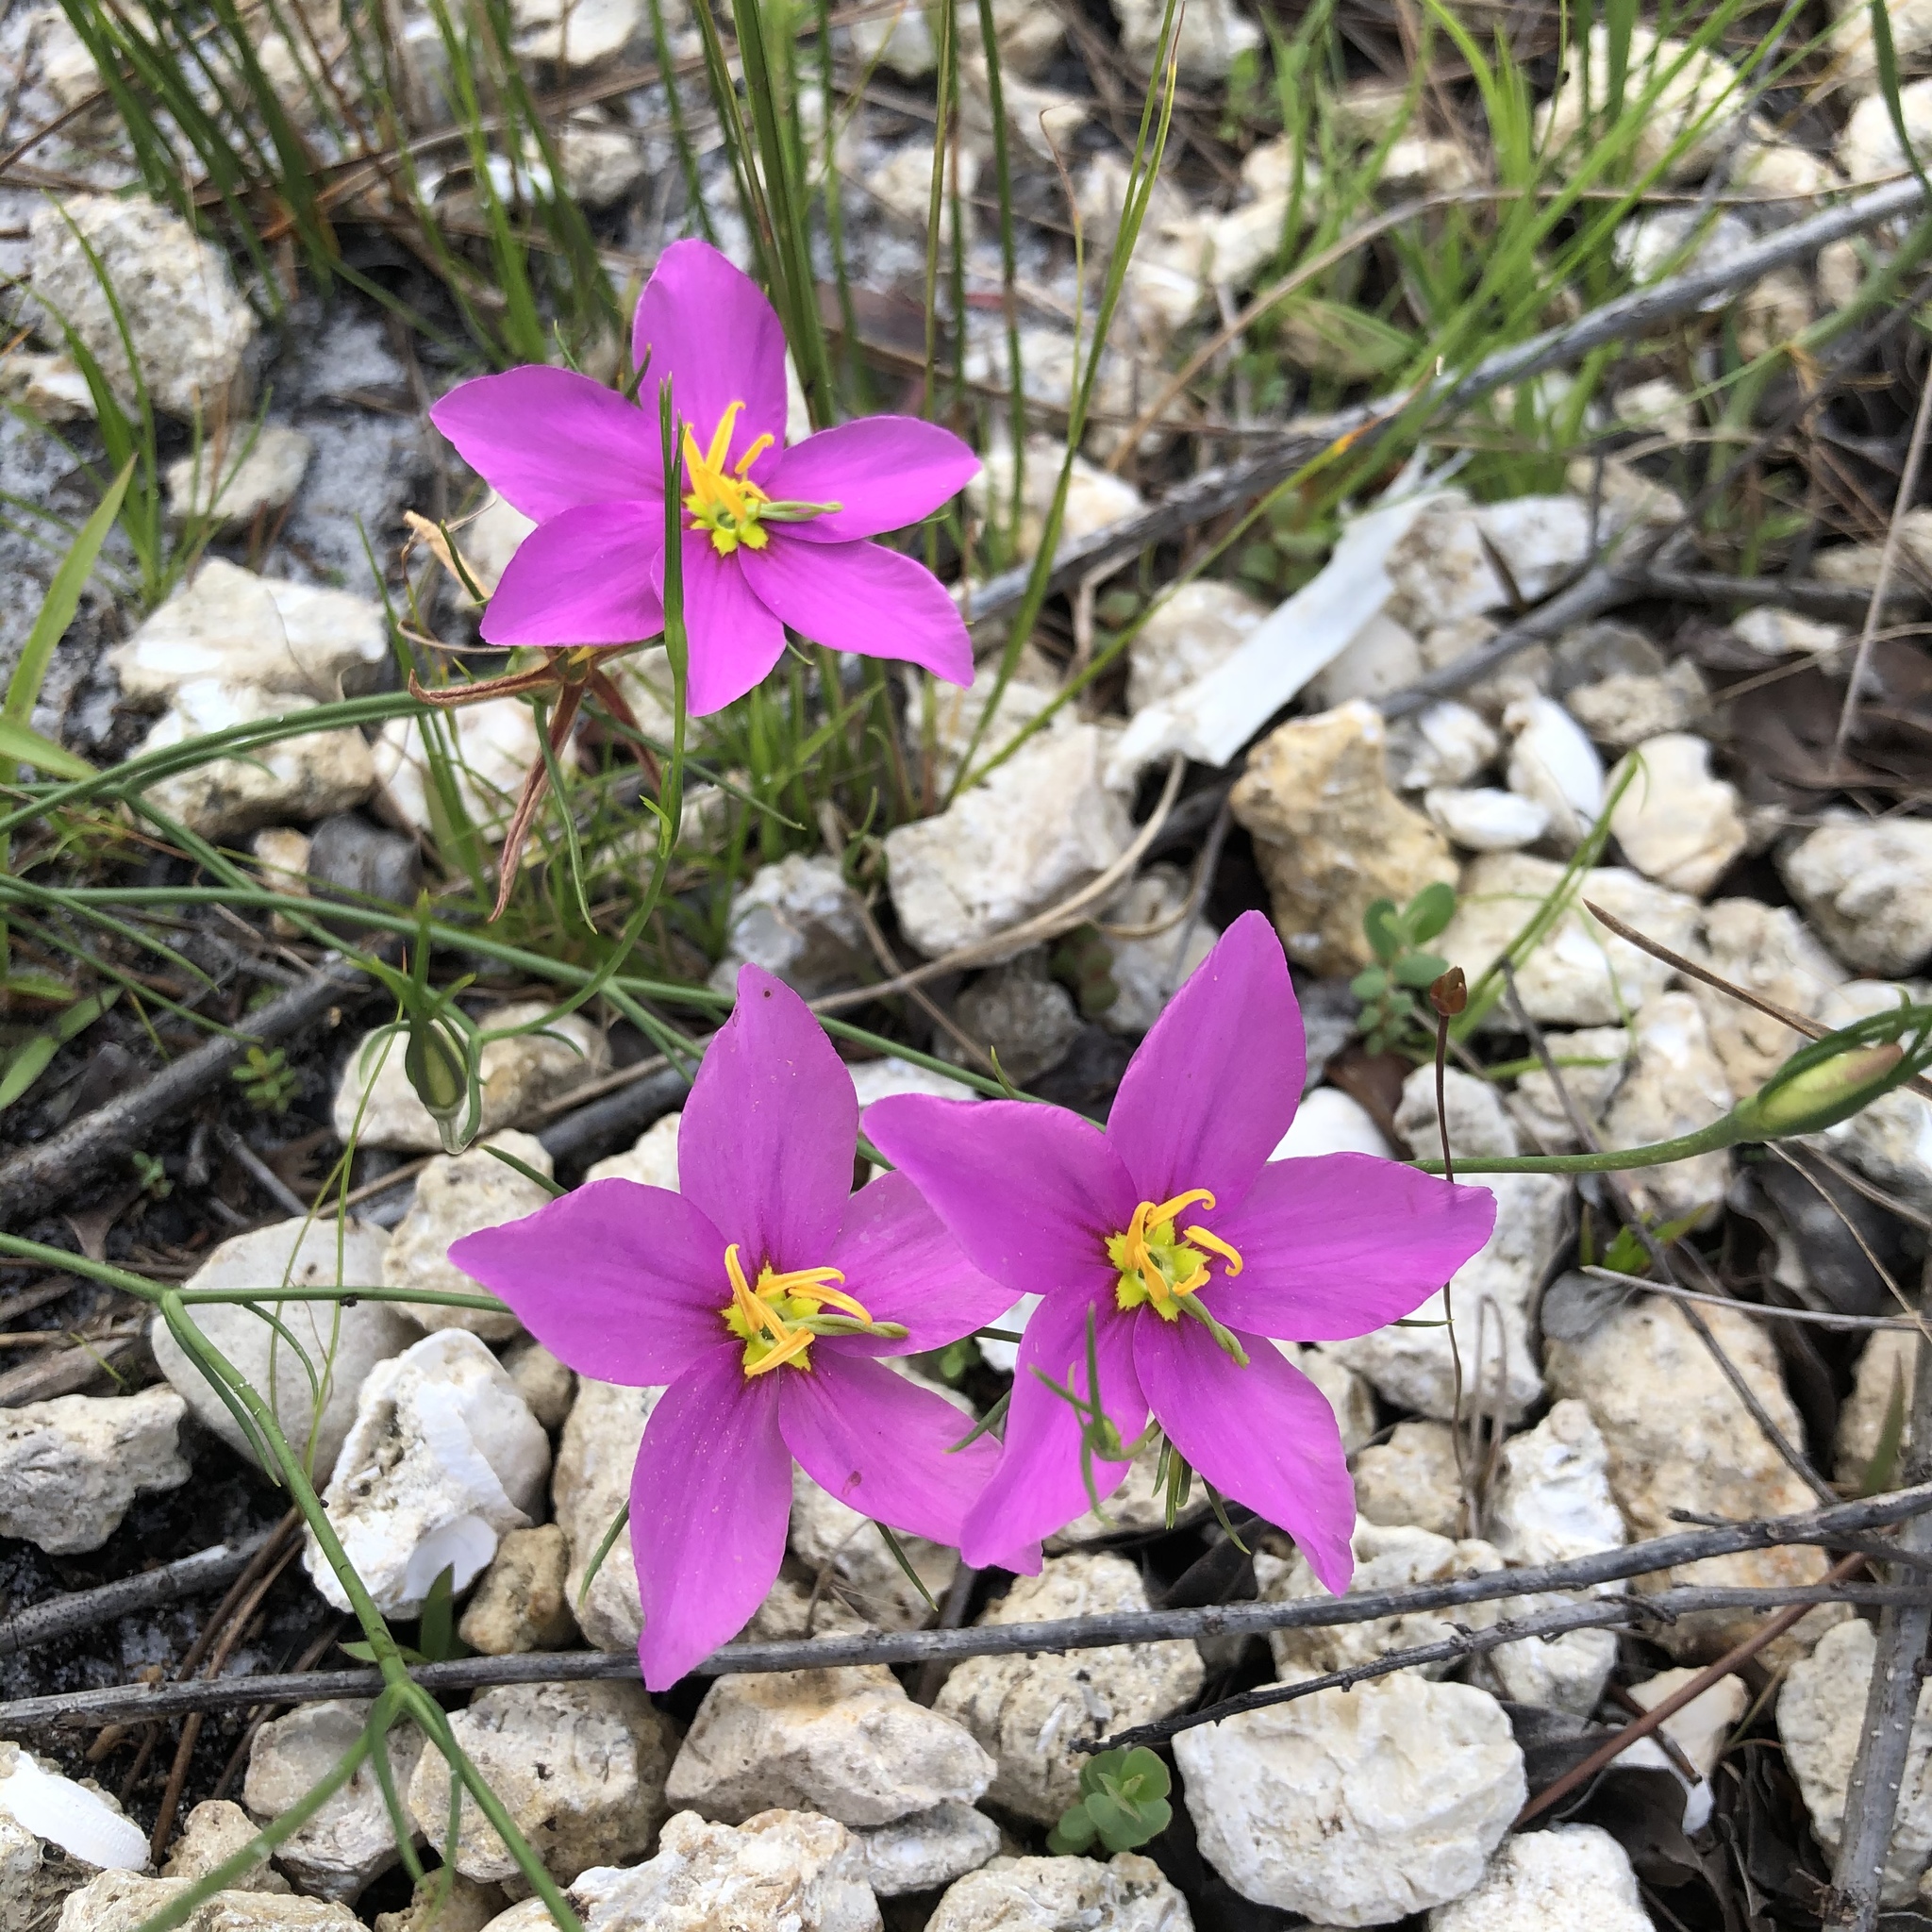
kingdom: Plantae
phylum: Tracheophyta
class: Magnoliopsida
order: Gentianales
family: Gentianaceae
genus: Sabatia
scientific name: Sabatia grandiflora
